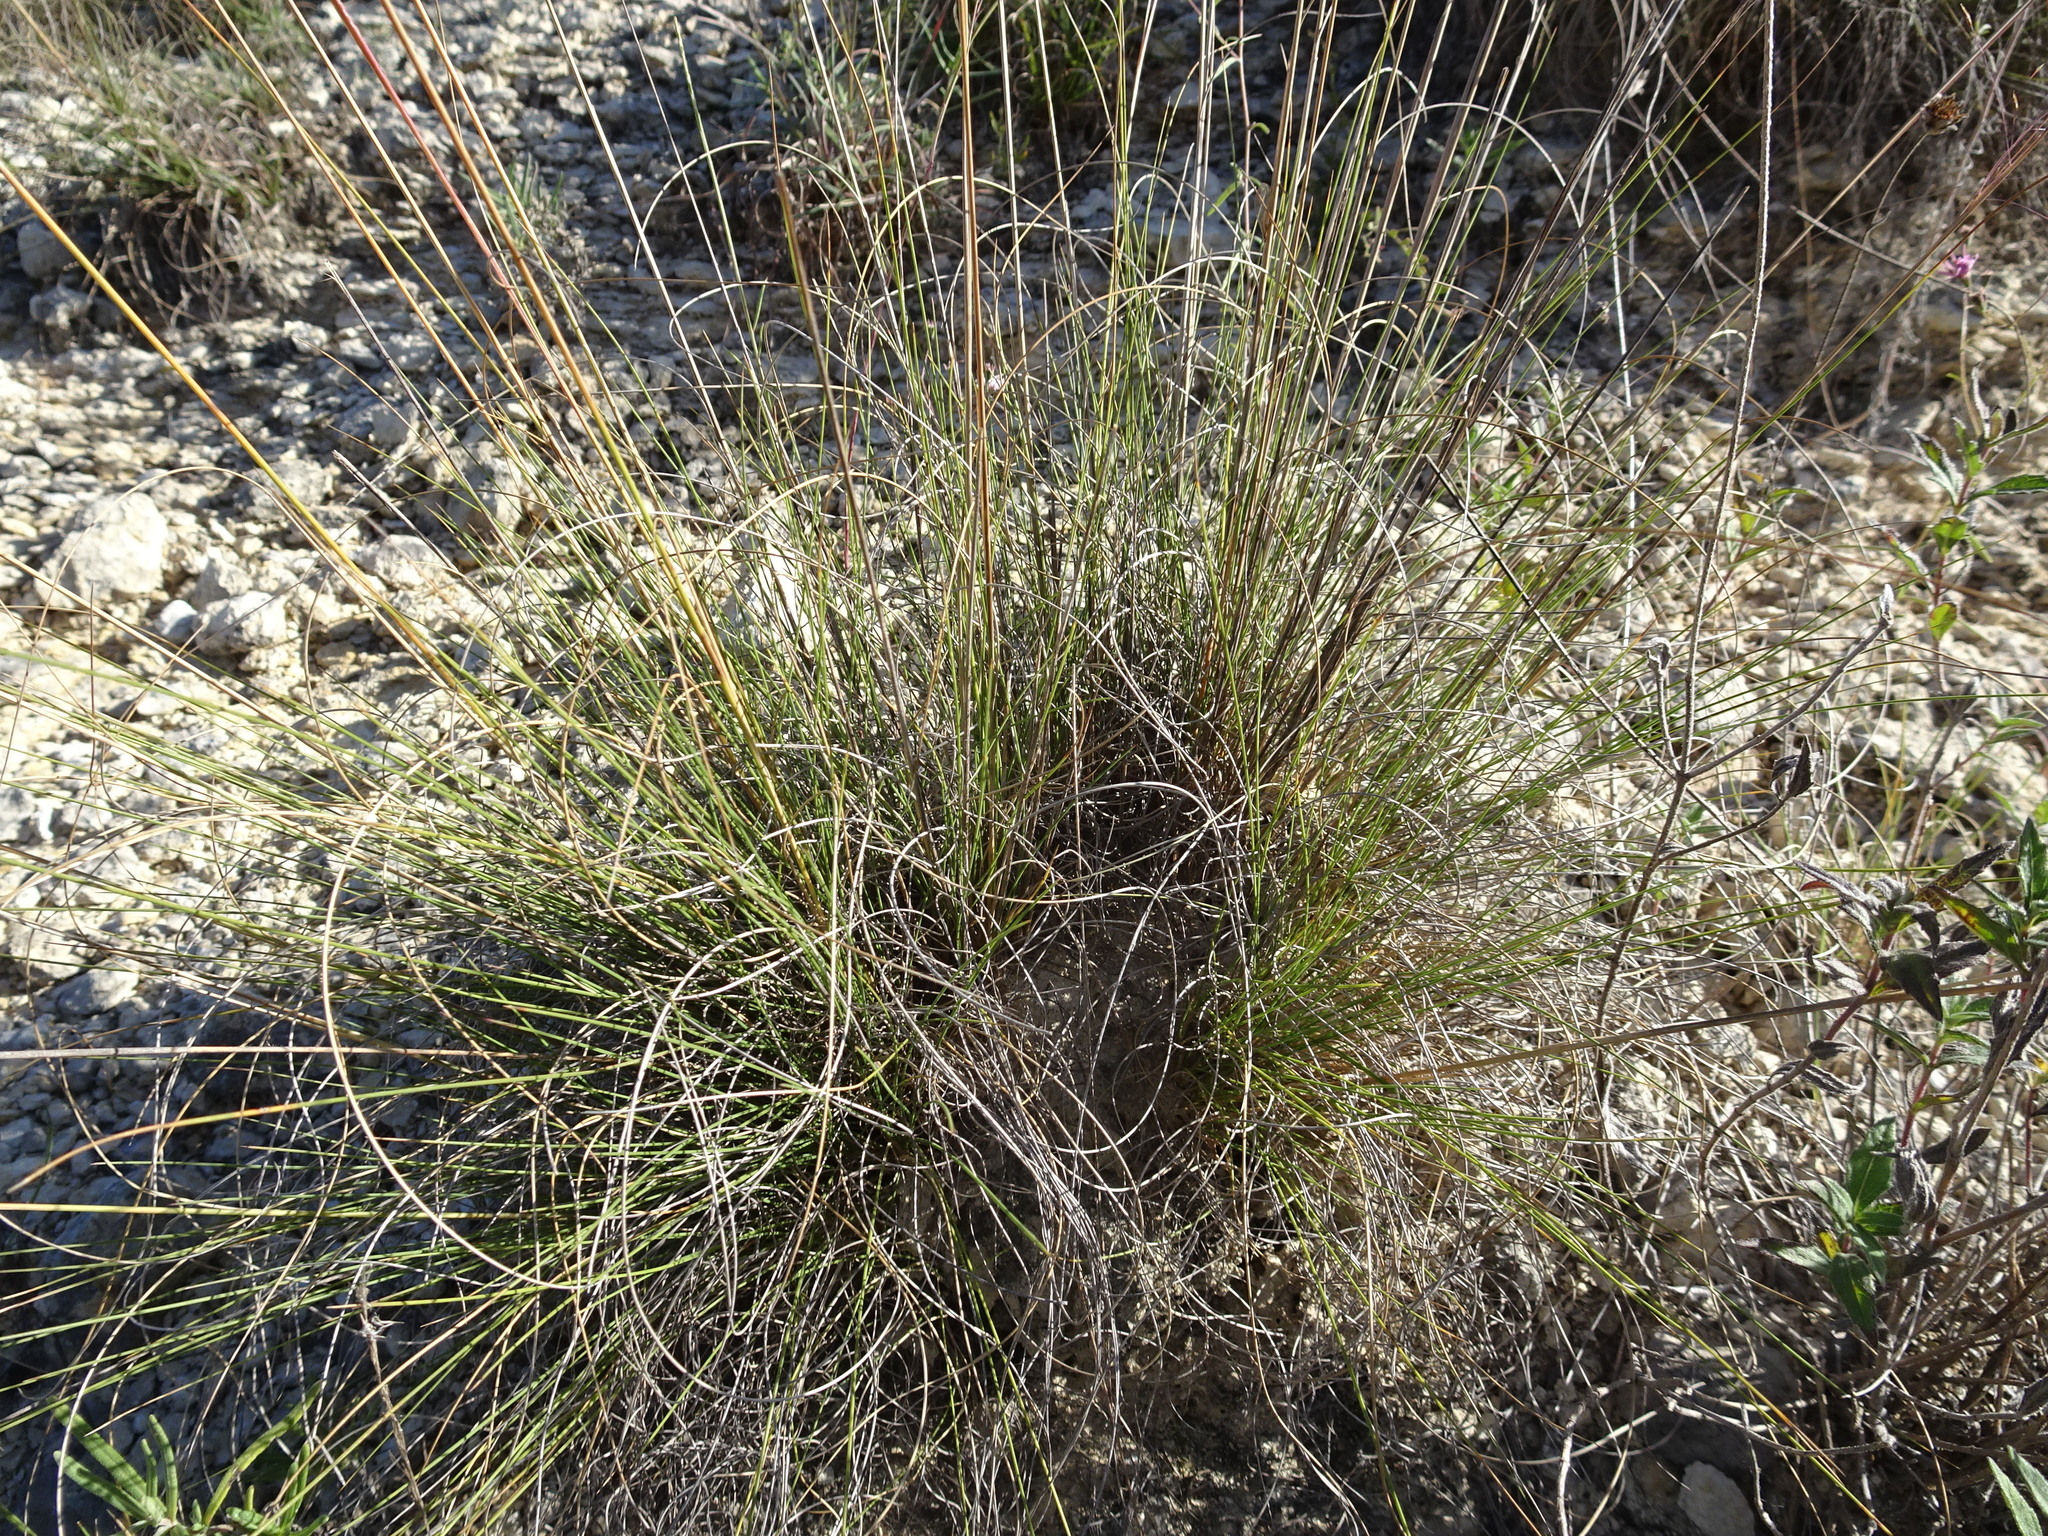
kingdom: Plantae
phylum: Tracheophyta
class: Liliopsida
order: Poales
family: Poaceae
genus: Muhlenbergia
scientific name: Muhlenbergia reverchonii
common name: Seep muhly
